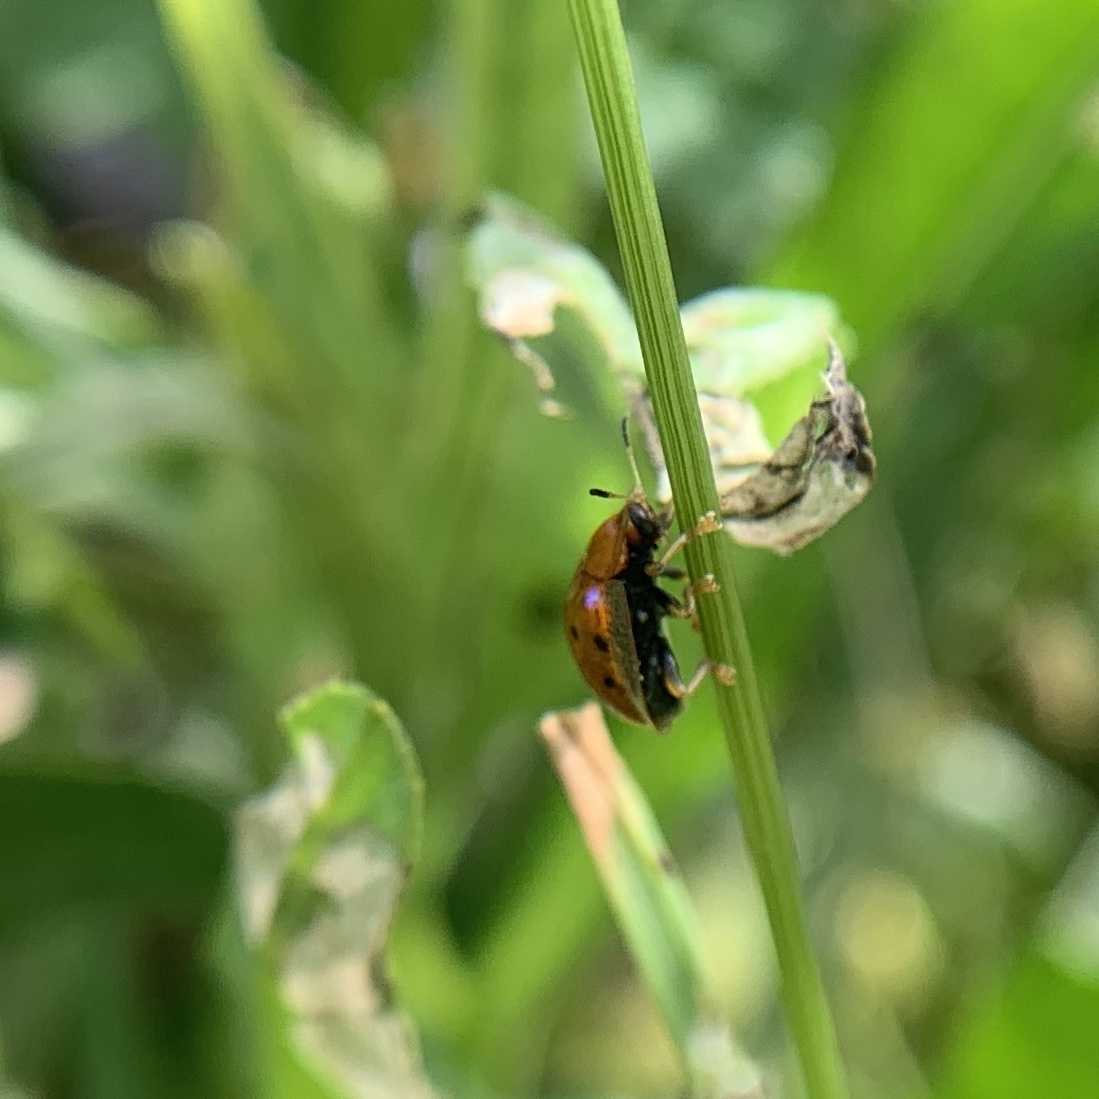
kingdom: Animalia
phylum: Arthropoda
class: Insecta
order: Coleoptera
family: Chrysomelidae
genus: Charidotella
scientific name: Charidotella sexpunctata
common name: Golden tortoise beetle
